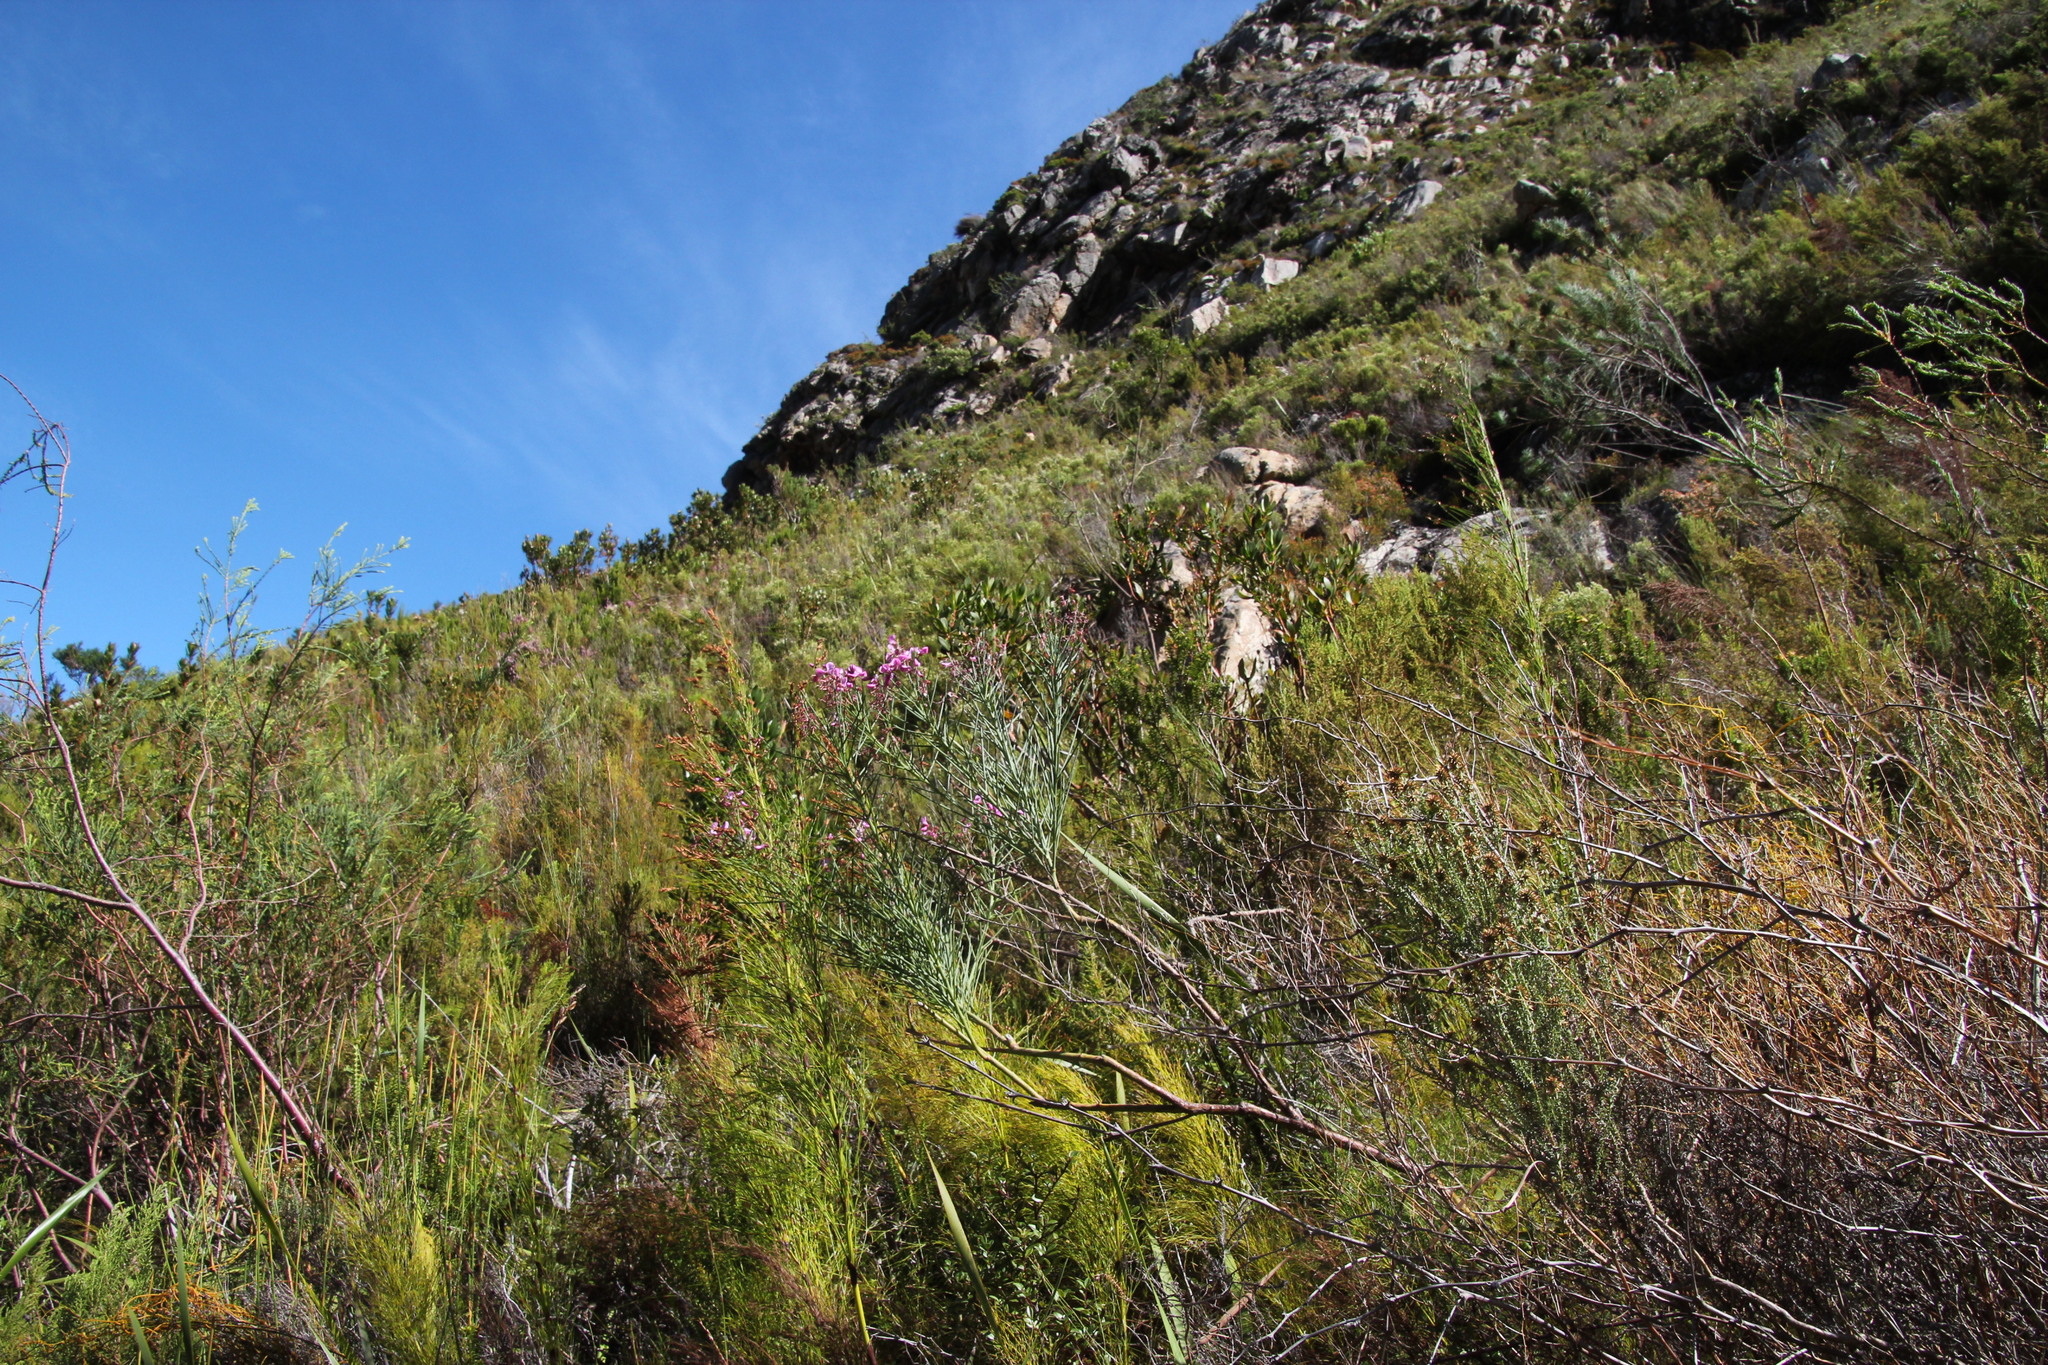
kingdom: Plantae
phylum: Tracheophyta
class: Magnoliopsida
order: Fabales
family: Fabaceae
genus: Indigofera
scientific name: Indigofera filifolia
